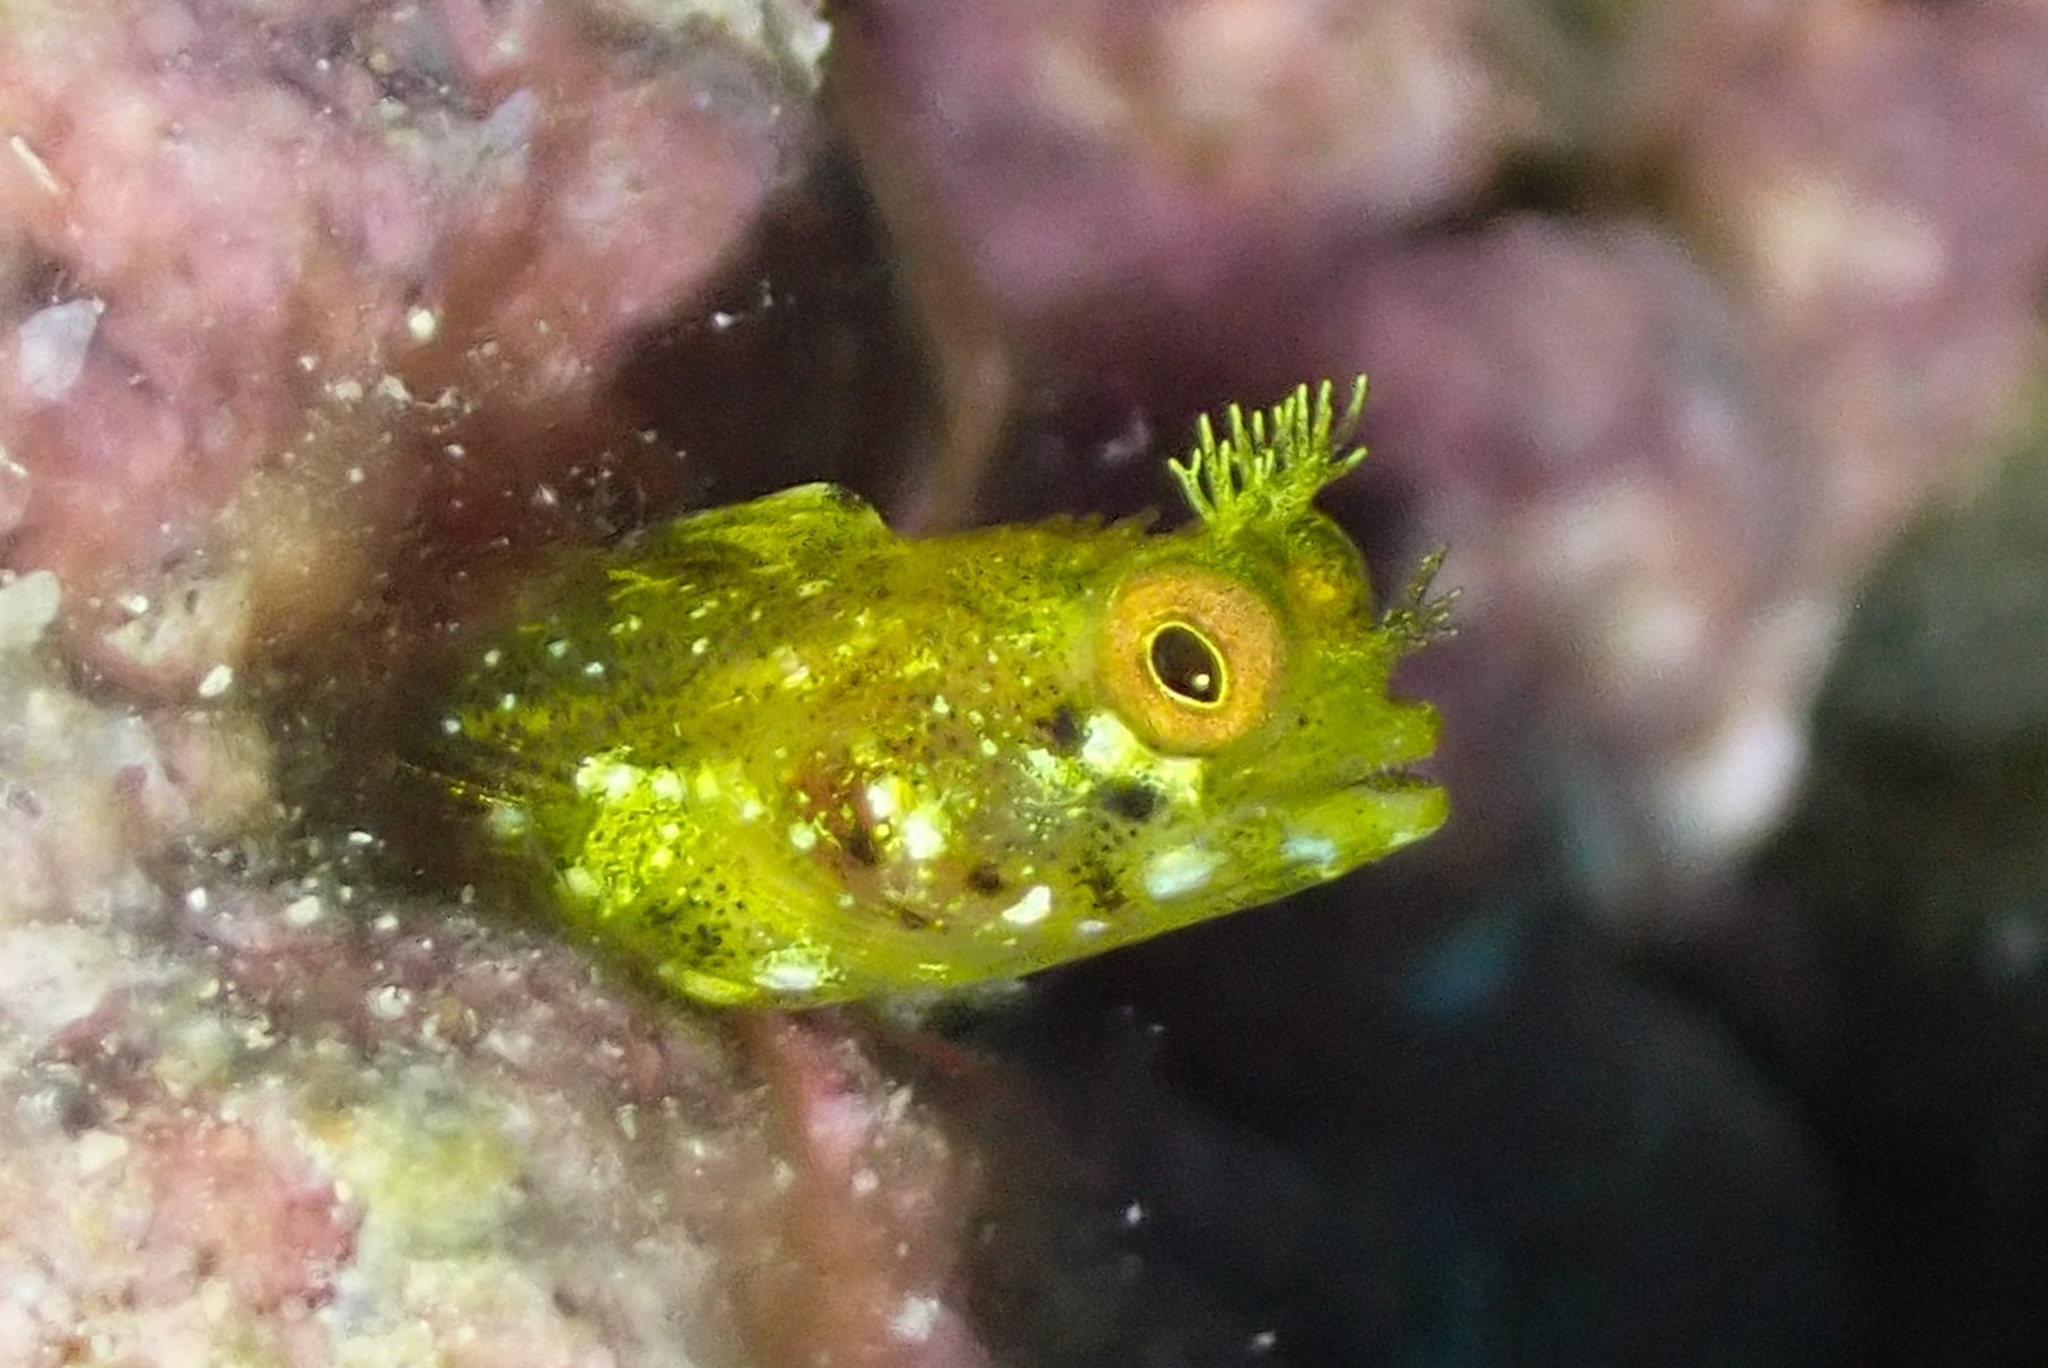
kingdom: Animalia
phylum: Chordata
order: Perciformes
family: Chaenopsidae
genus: Acanthemblemaria
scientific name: Acanthemblemaria aspera
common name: Roughhead blenny
